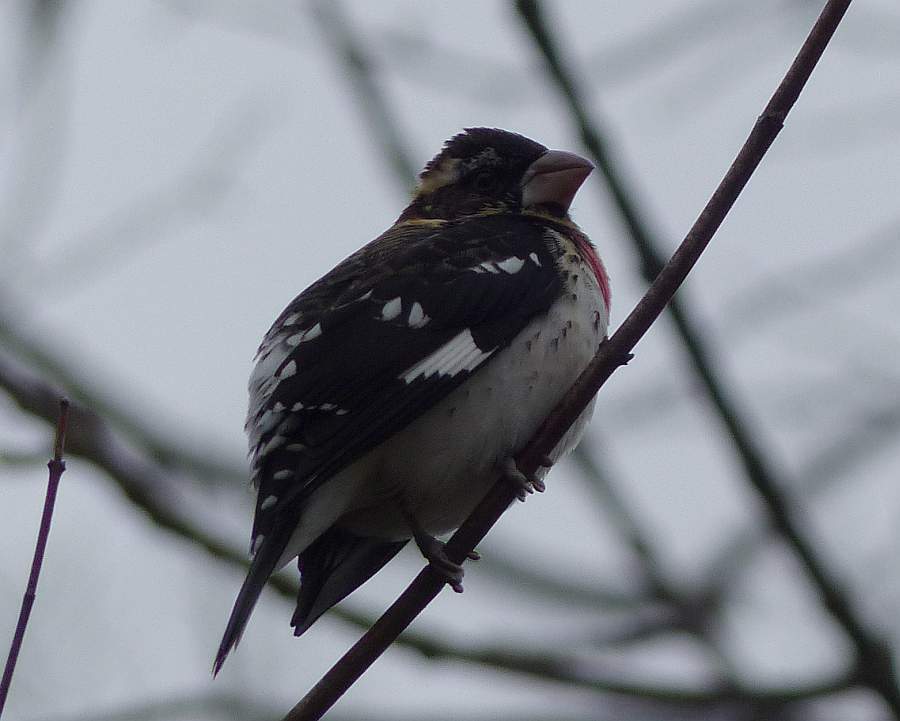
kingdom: Animalia
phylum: Chordata
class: Aves
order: Passeriformes
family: Cardinalidae
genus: Pheucticus
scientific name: Pheucticus ludovicianus
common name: Rose-breasted grosbeak
